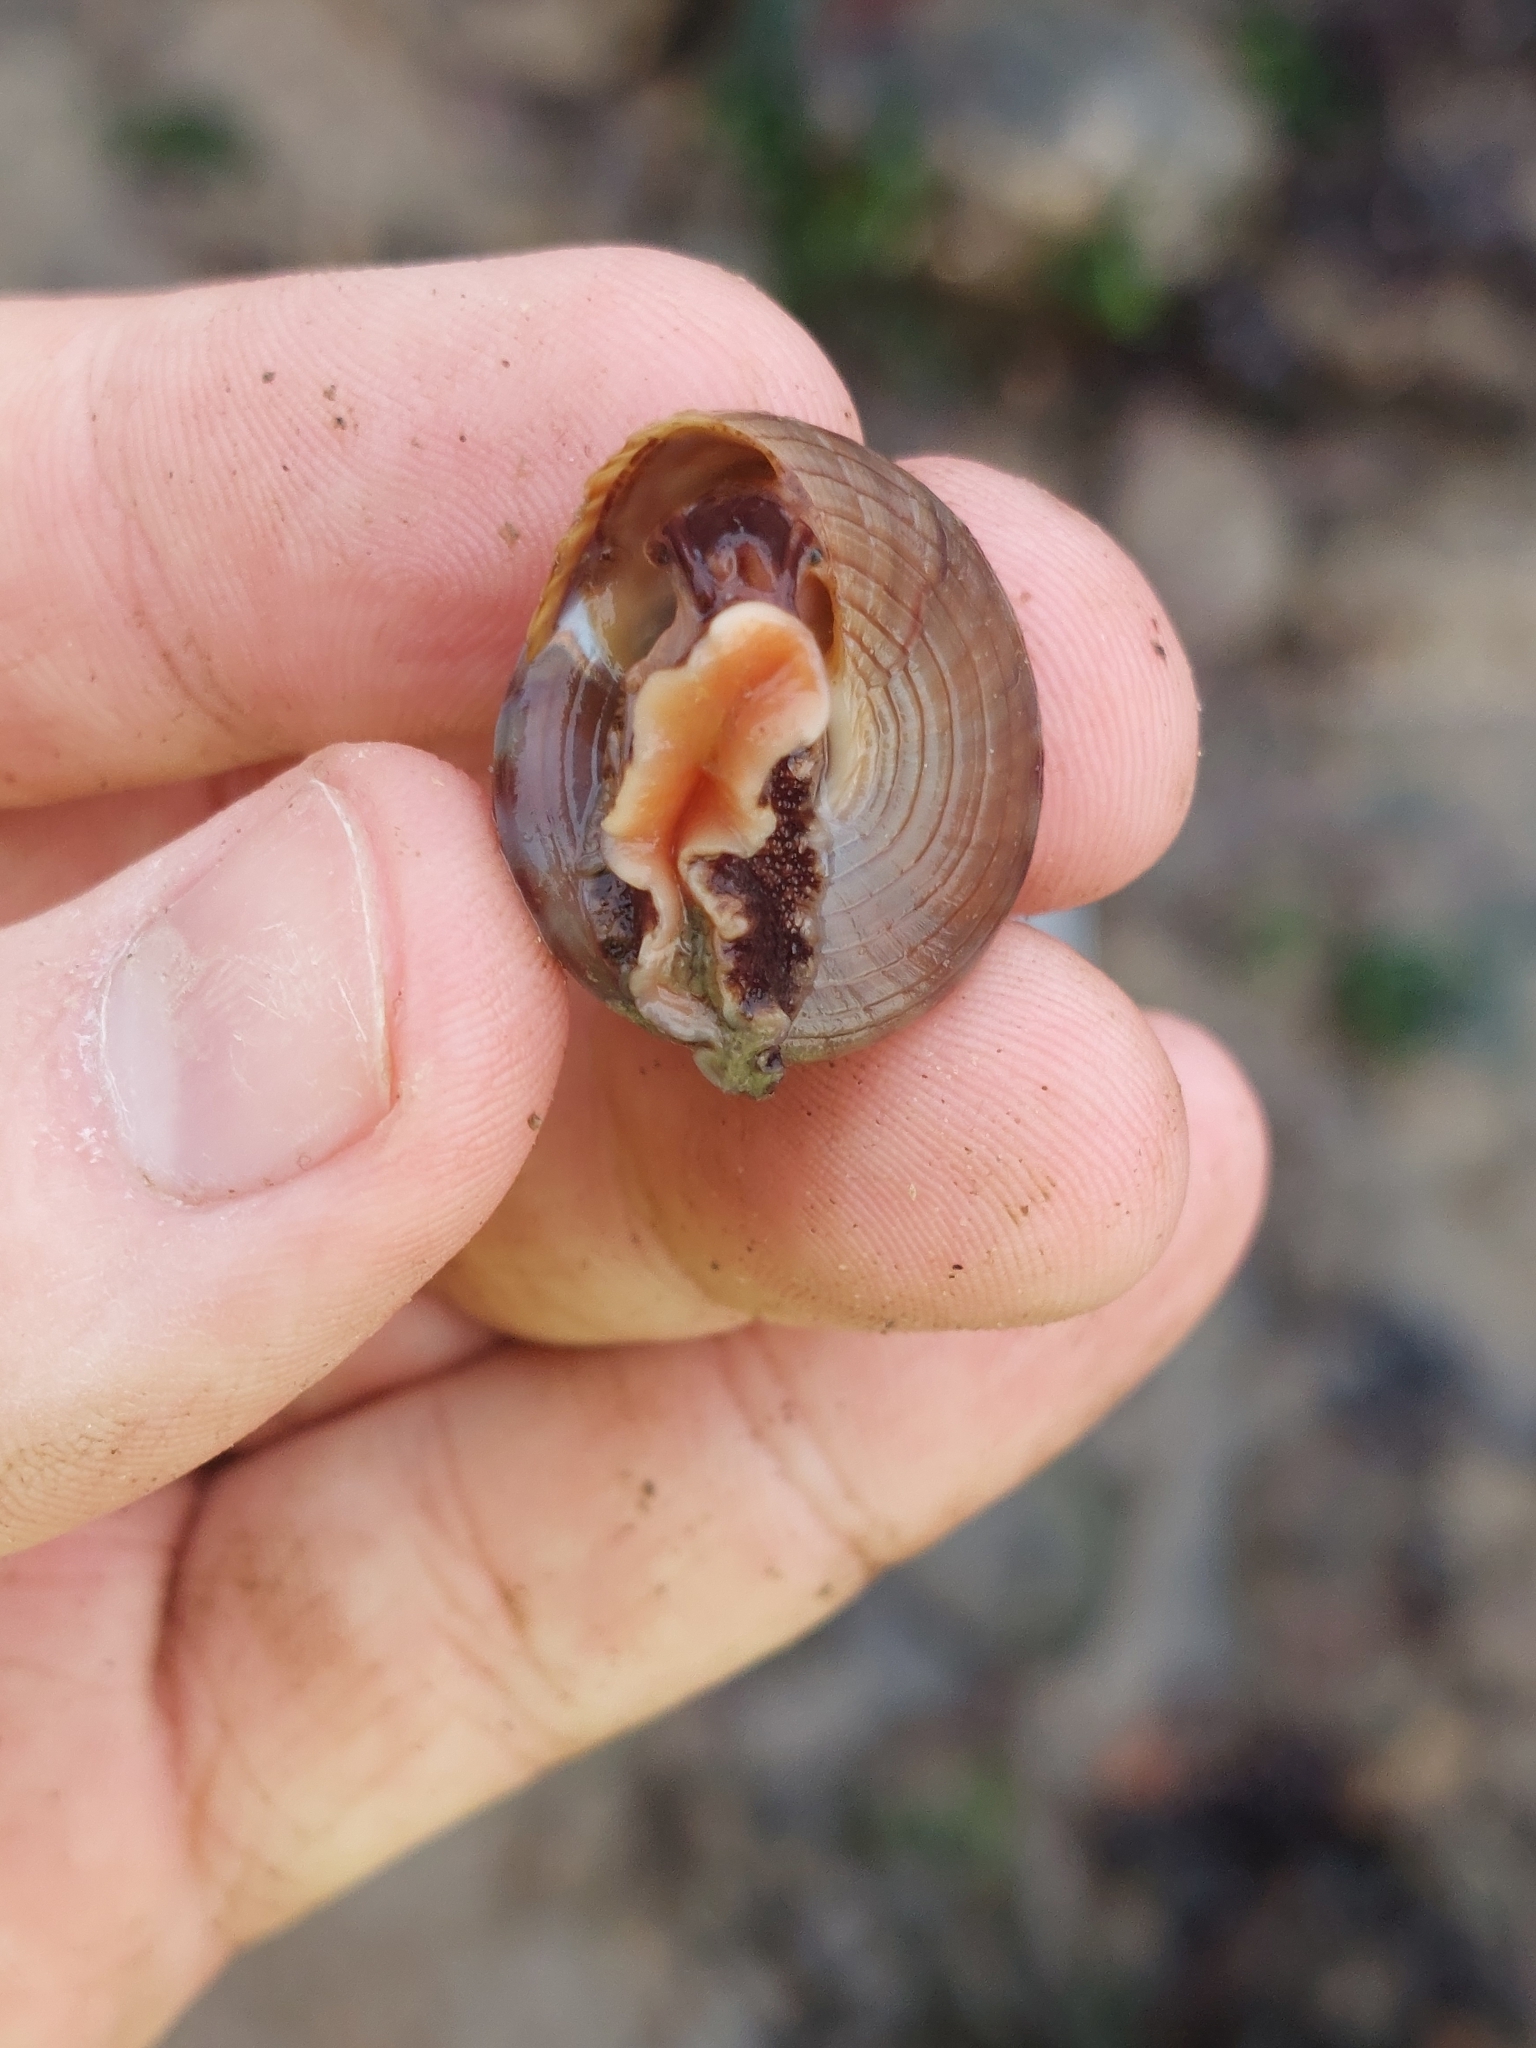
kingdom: Animalia
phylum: Mollusca
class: Gastropoda
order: Trochida
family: Calliostomatidae
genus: Calliostoma
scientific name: Calliostoma zizyphinum
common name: Painted top shell
